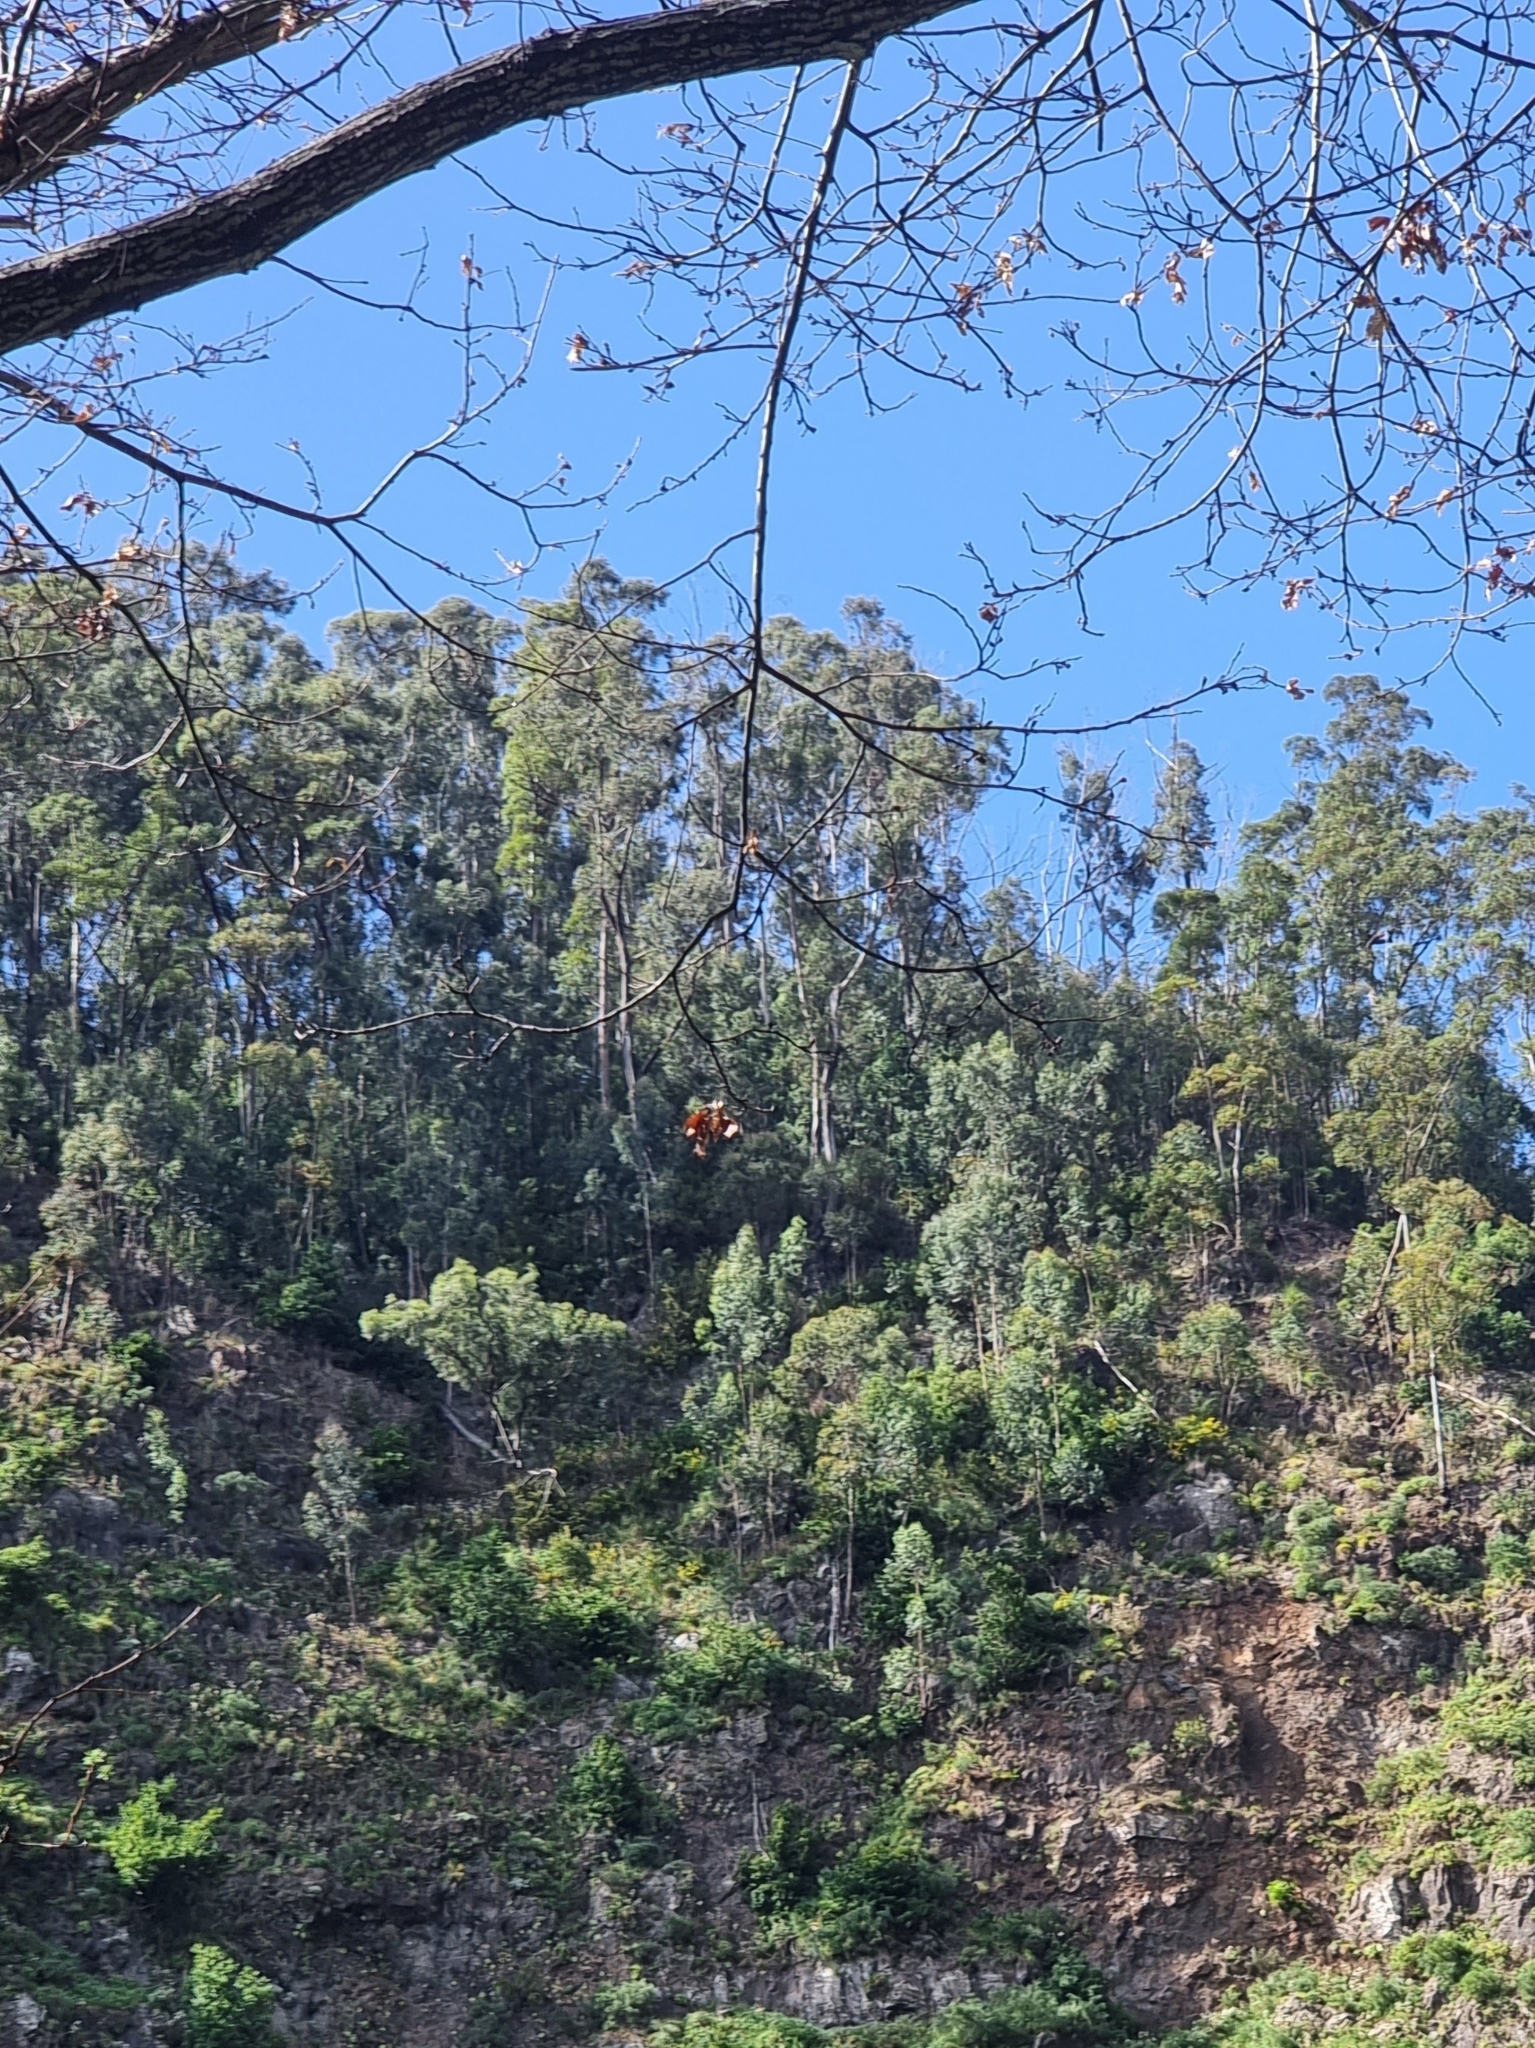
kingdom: Plantae
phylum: Tracheophyta
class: Magnoliopsida
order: Myrtales
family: Myrtaceae
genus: Eucalyptus
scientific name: Eucalyptus globulus
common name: Southern blue-gum
